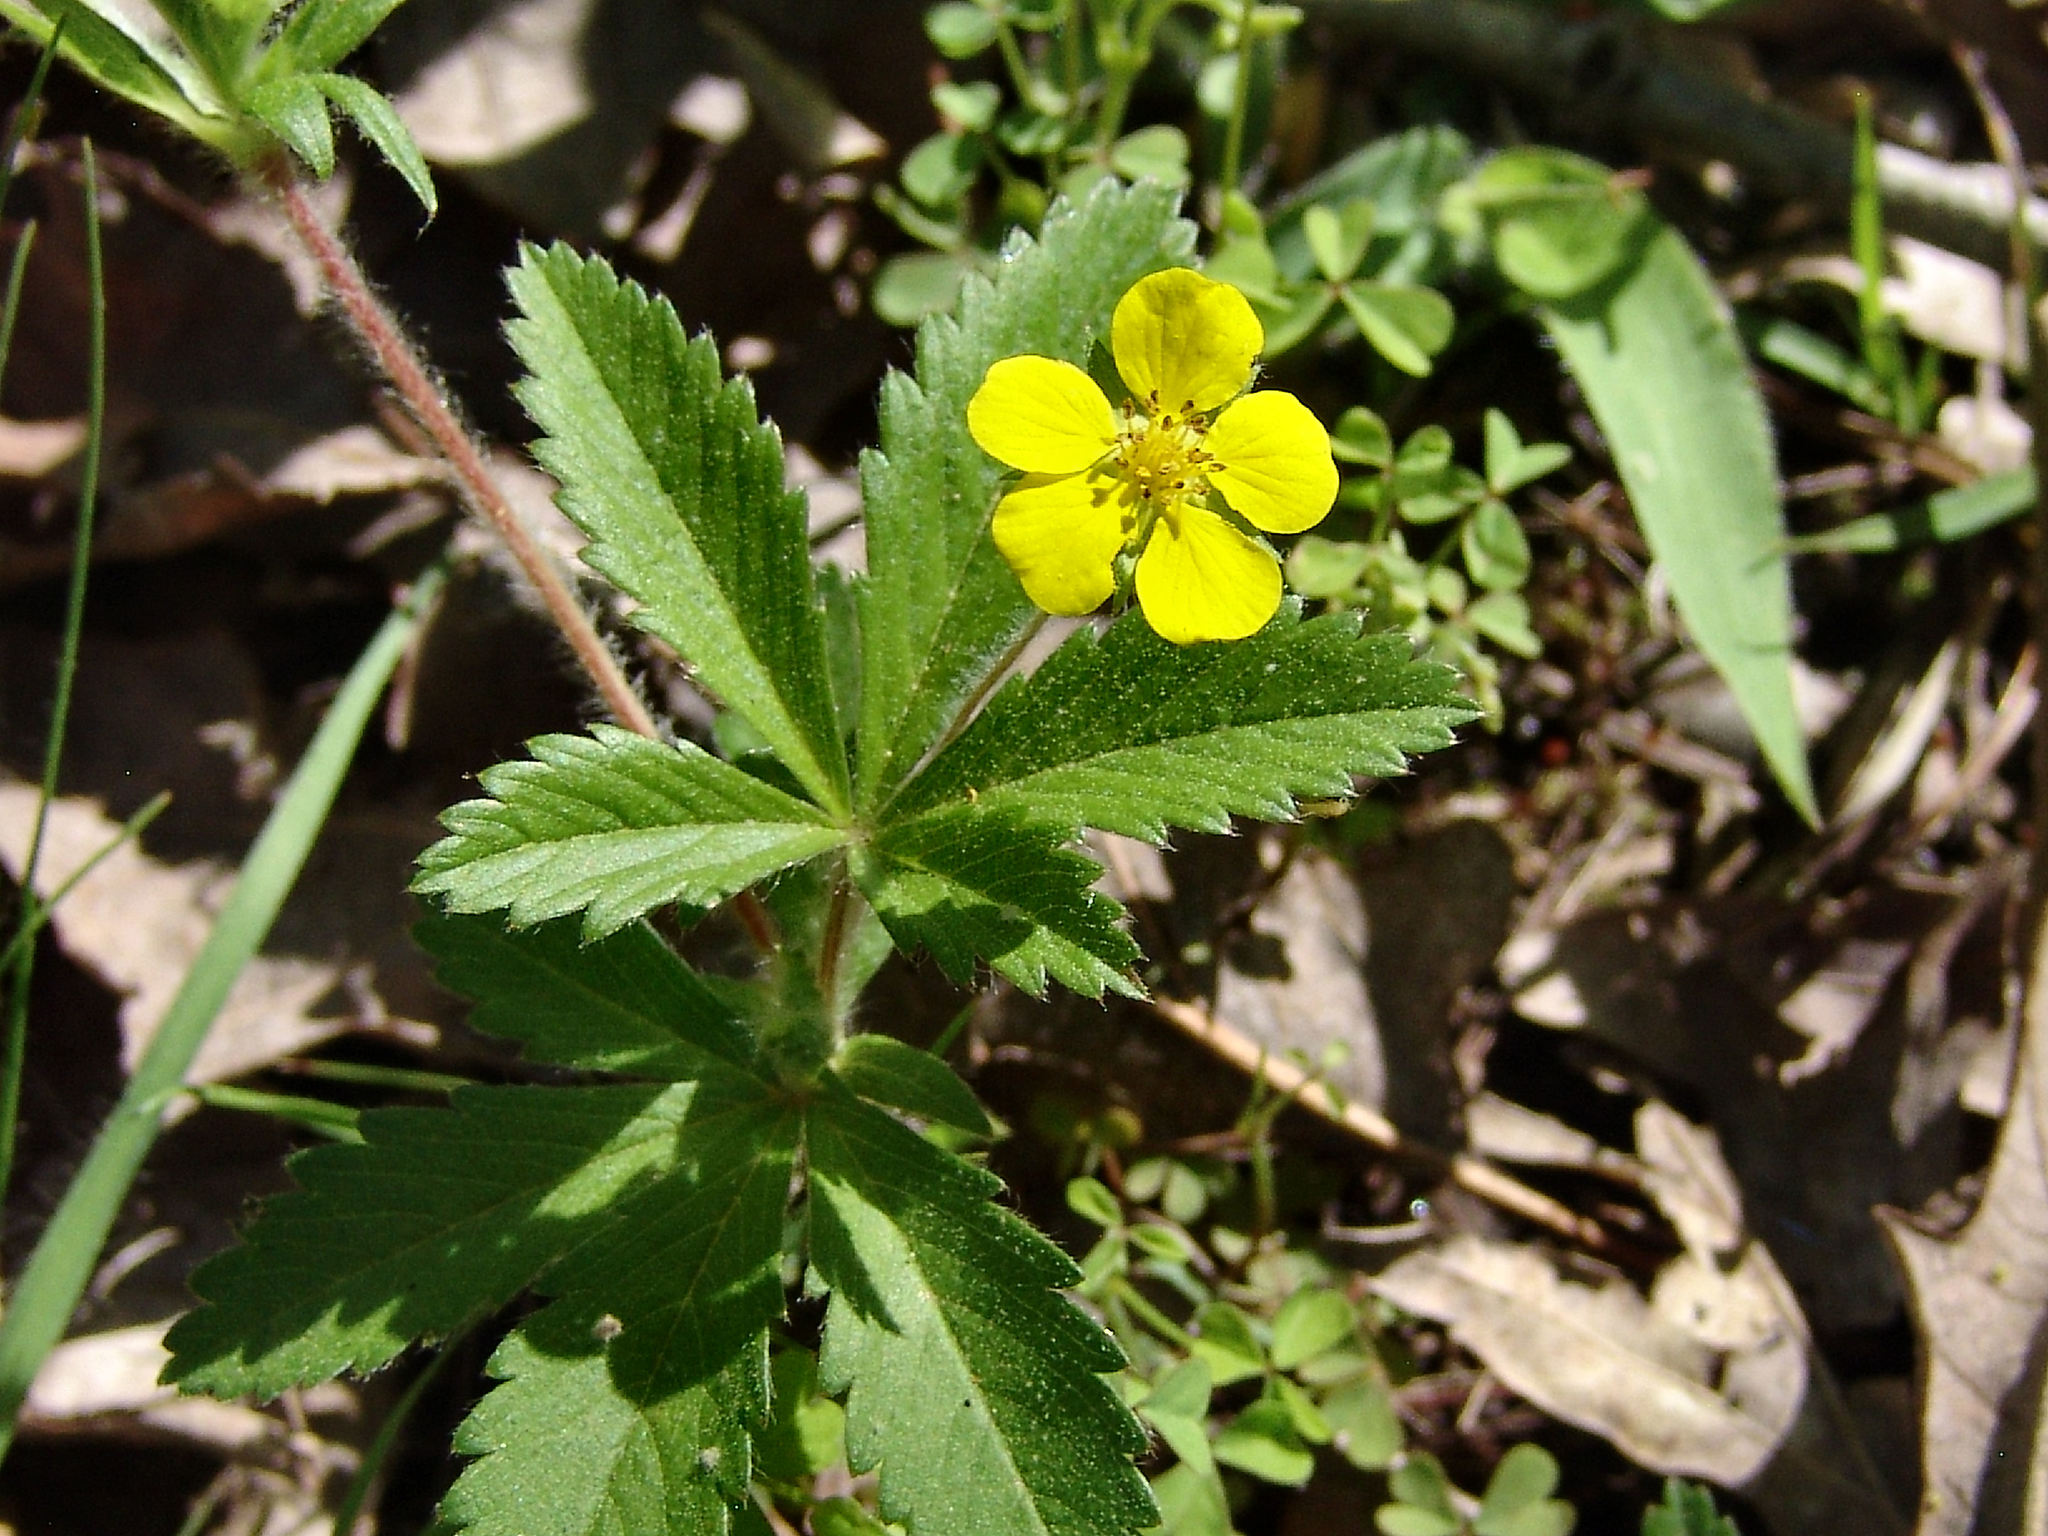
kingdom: Plantae
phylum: Tracheophyta
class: Magnoliopsida
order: Rosales
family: Rosaceae
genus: Potentilla
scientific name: Potentilla simplex
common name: Old field cinquefoil
